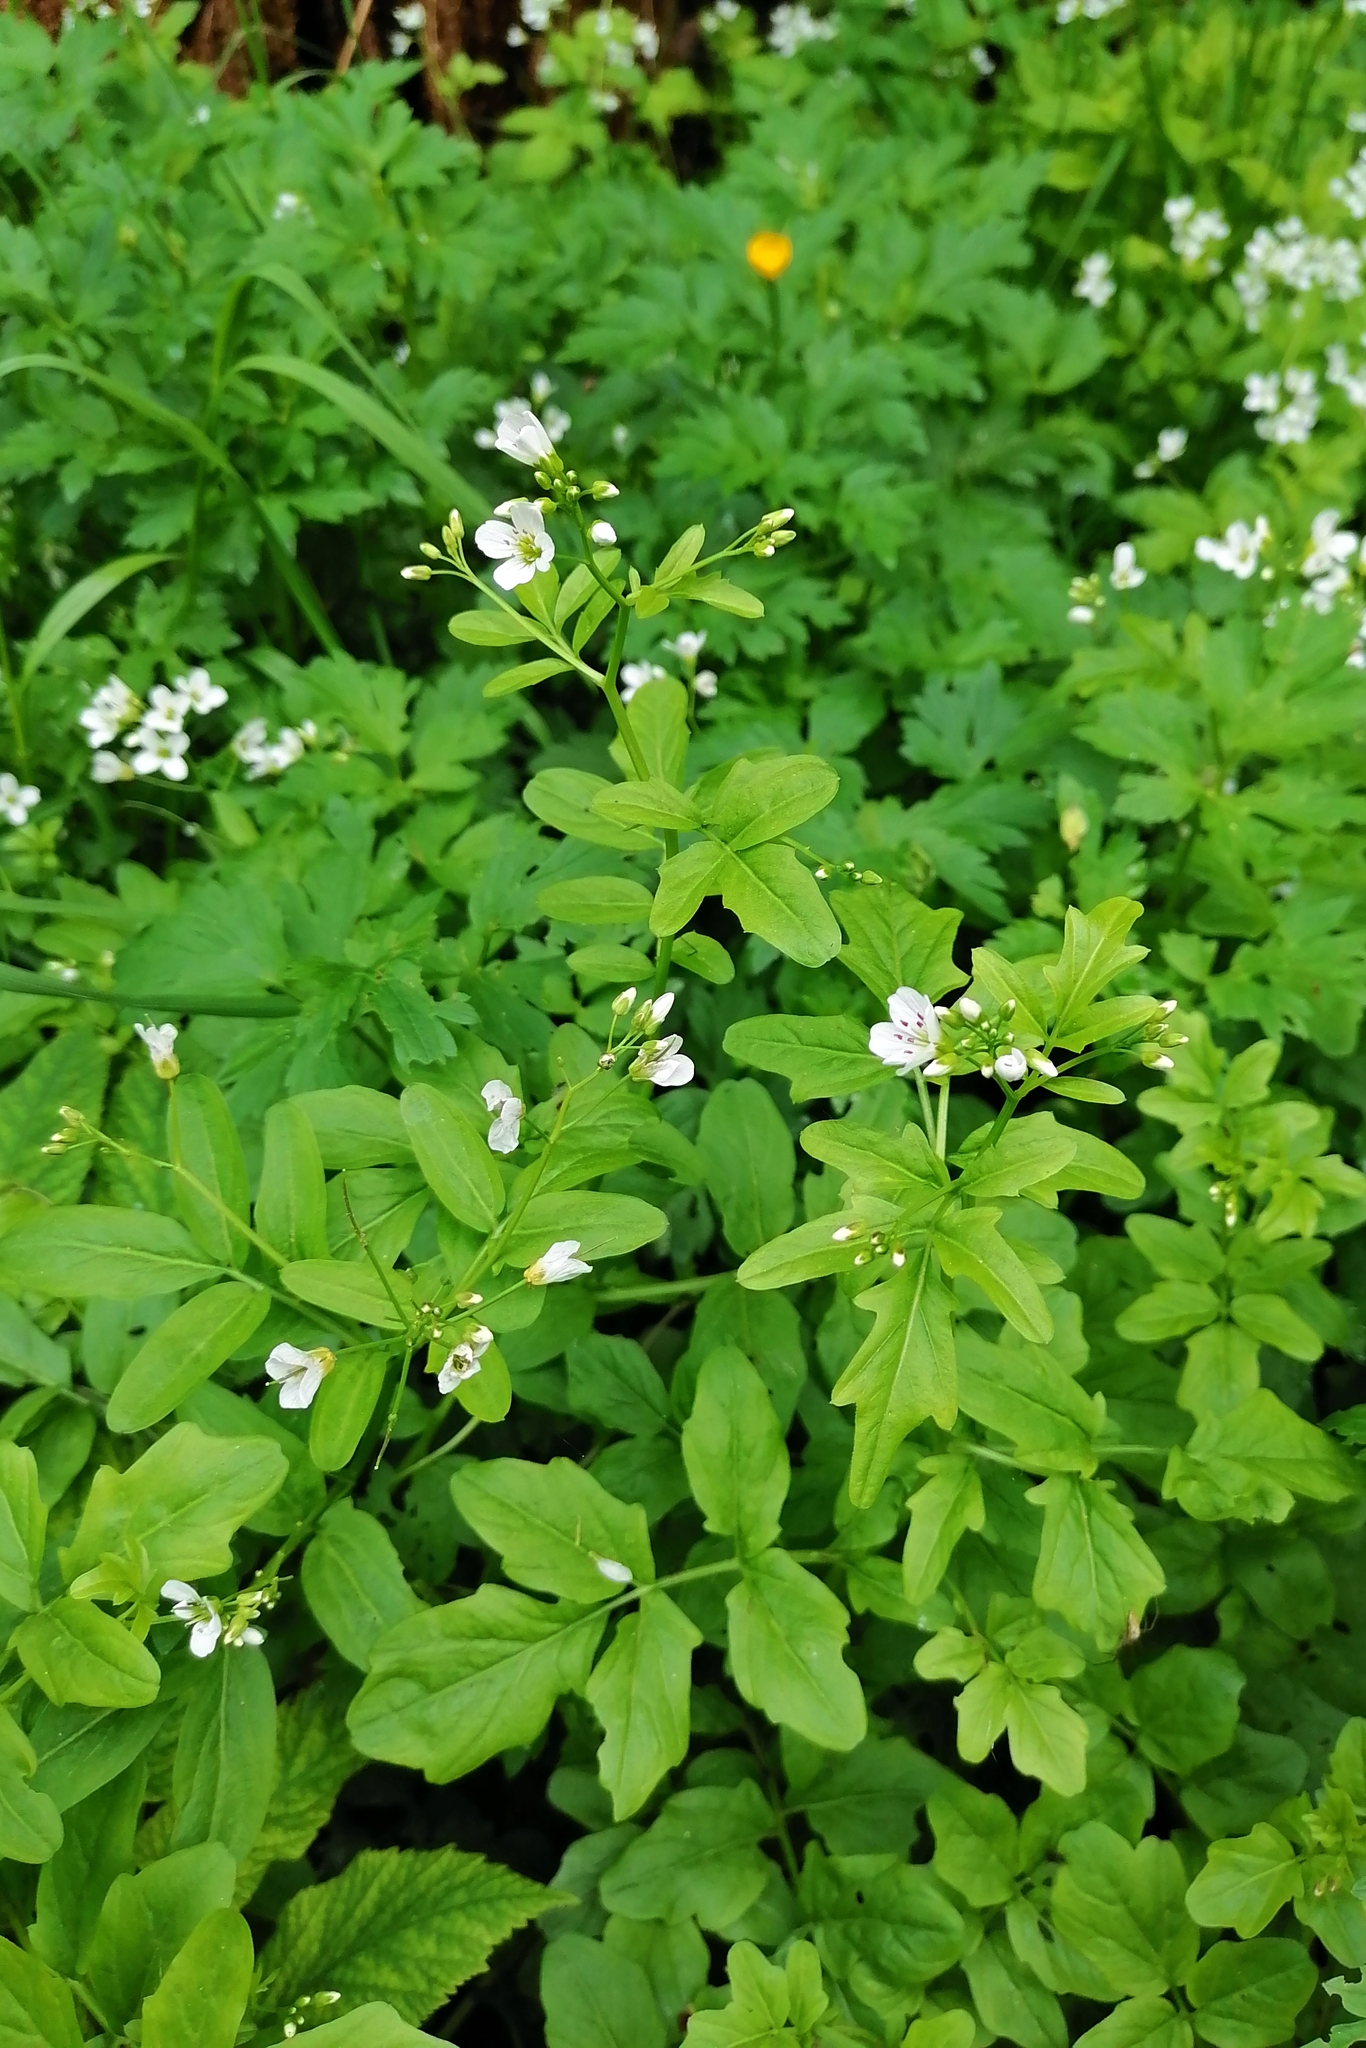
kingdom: Plantae
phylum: Tracheophyta
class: Magnoliopsida
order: Brassicales
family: Brassicaceae
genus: Cardamine
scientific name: Cardamine amara
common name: Large bitter-cress
